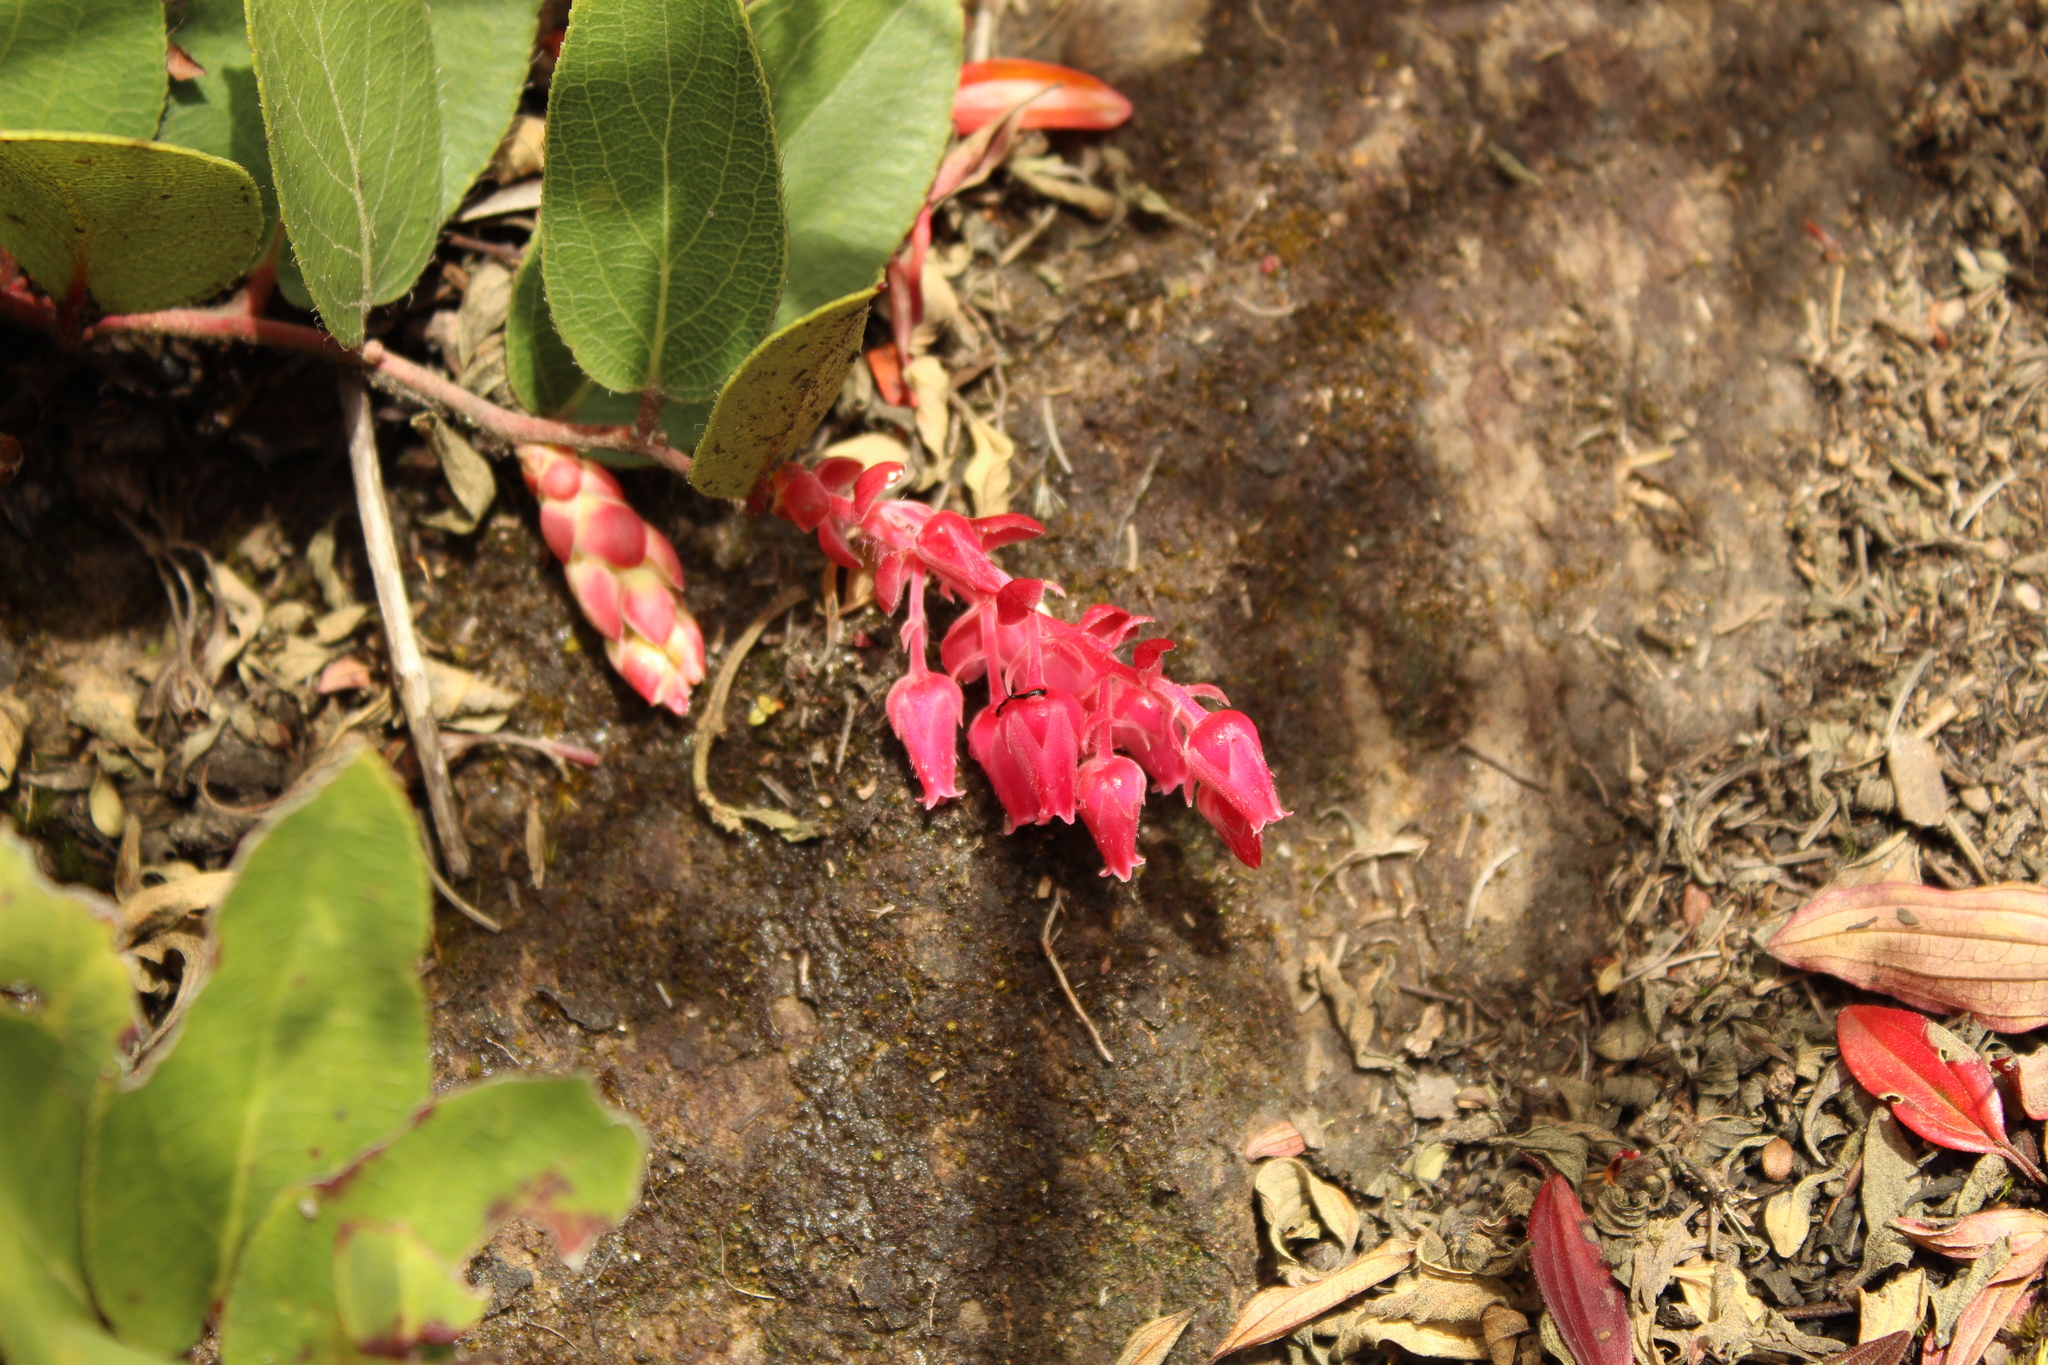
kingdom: Plantae
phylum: Tracheophyta
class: Magnoliopsida
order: Ericales
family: Ericaceae
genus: Gaultheria
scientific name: Gaultheria sclerophylla
